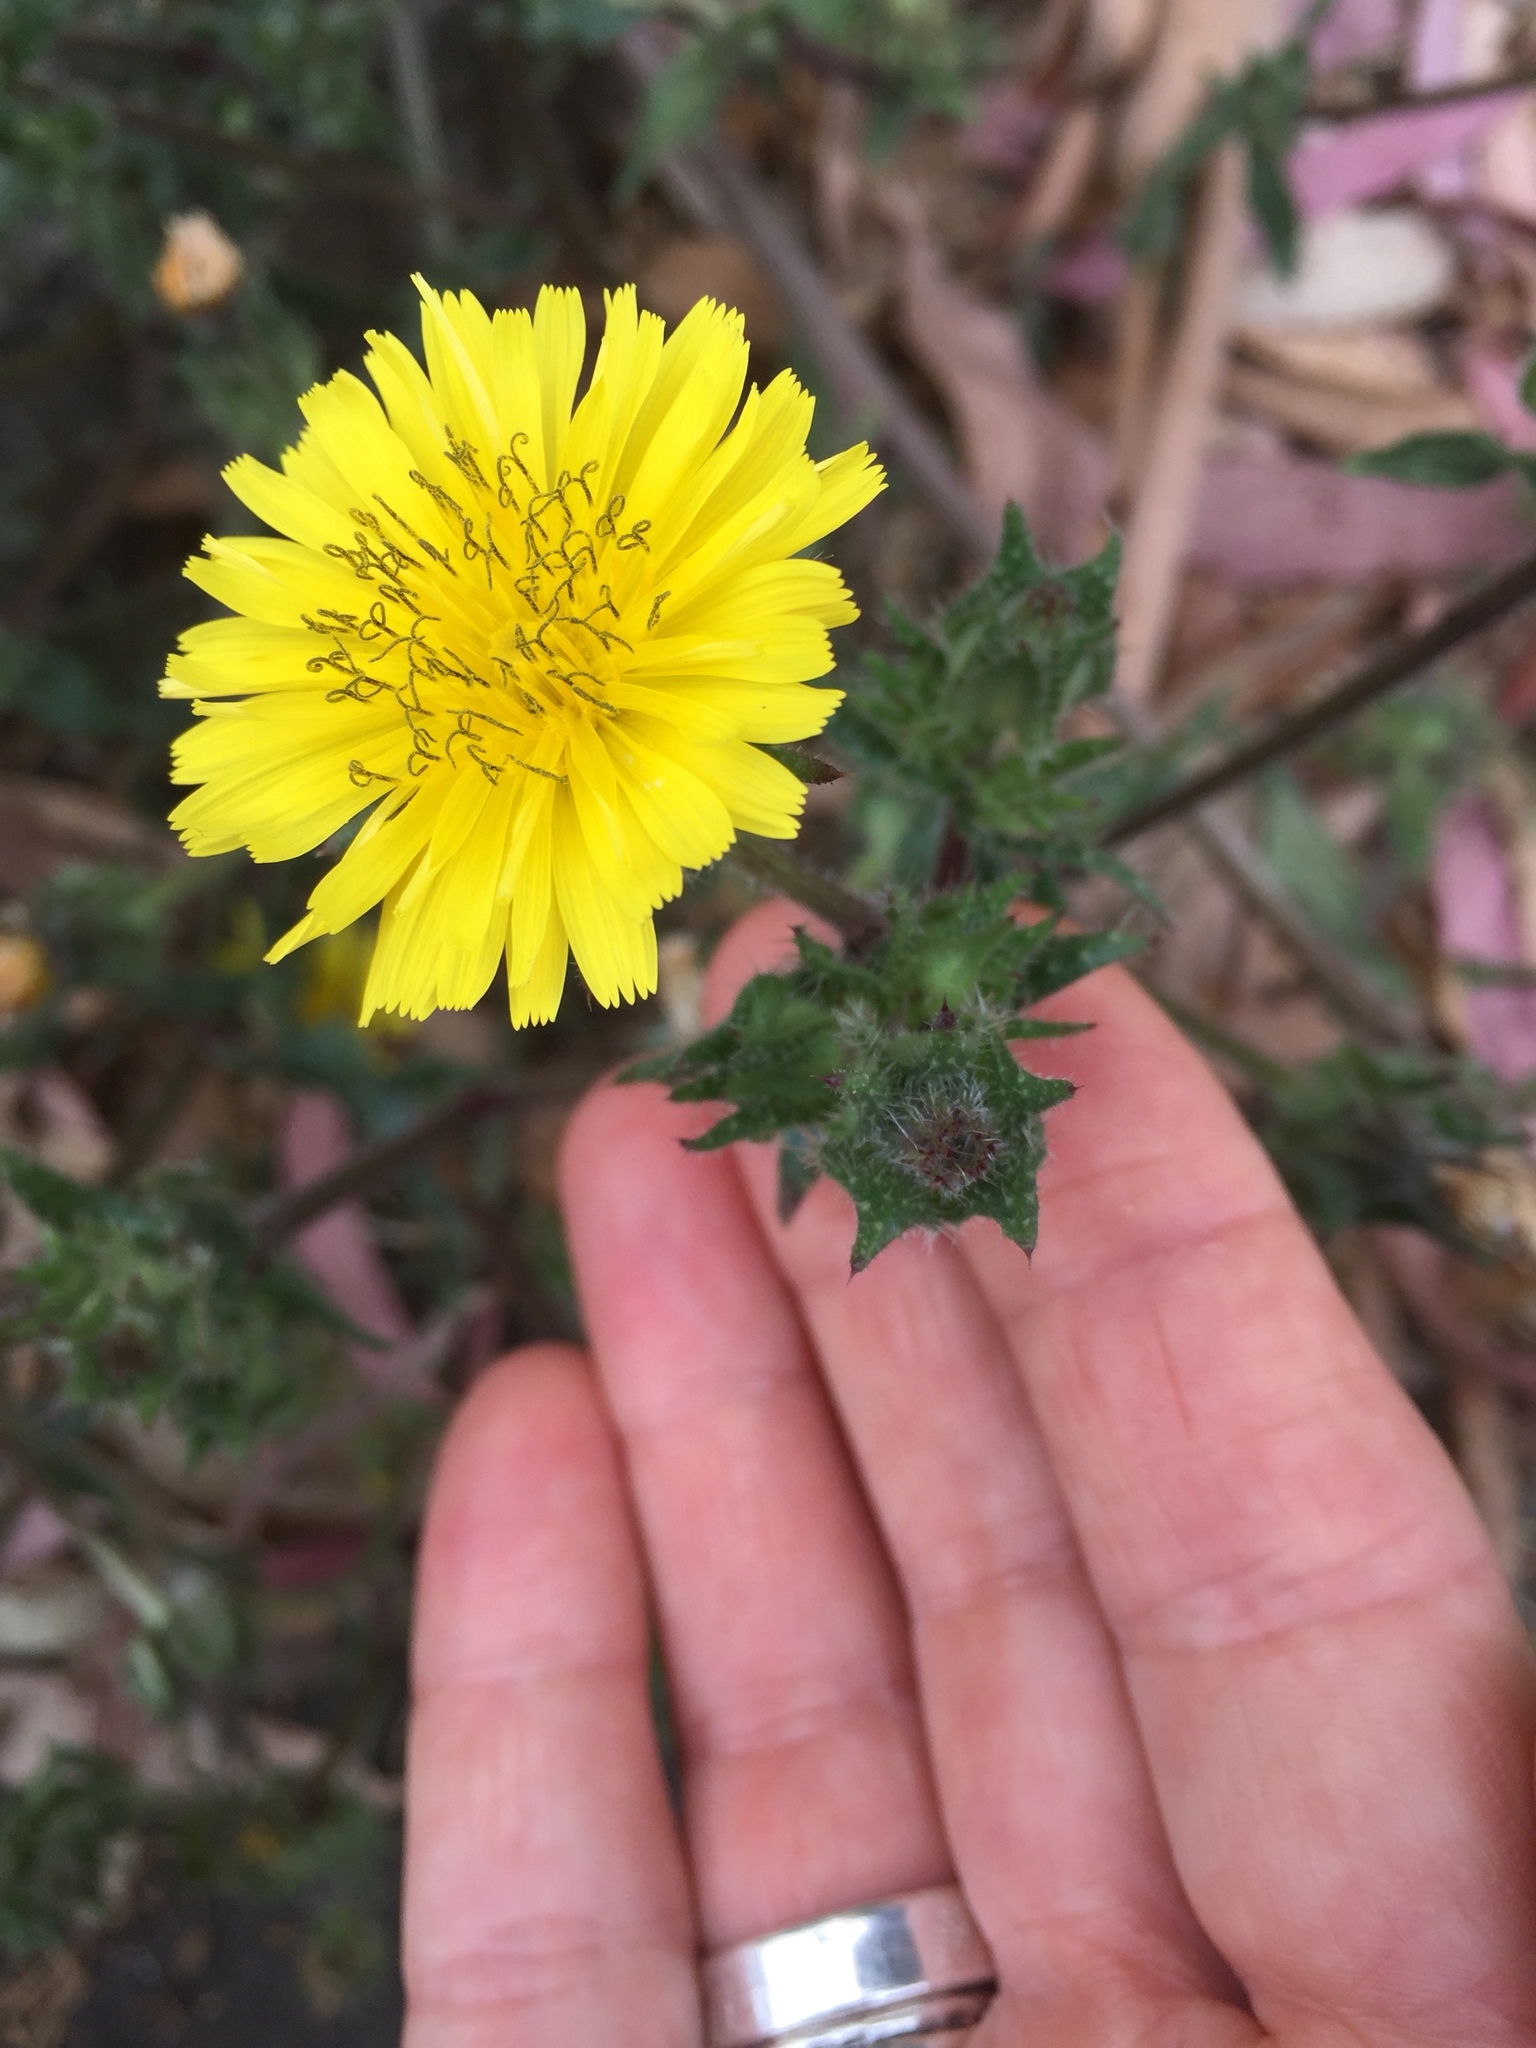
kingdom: Plantae
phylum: Tracheophyta
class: Magnoliopsida
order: Asterales
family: Asteraceae
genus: Helminthotheca
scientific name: Helminthotheca echioides
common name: Ox-tongue
